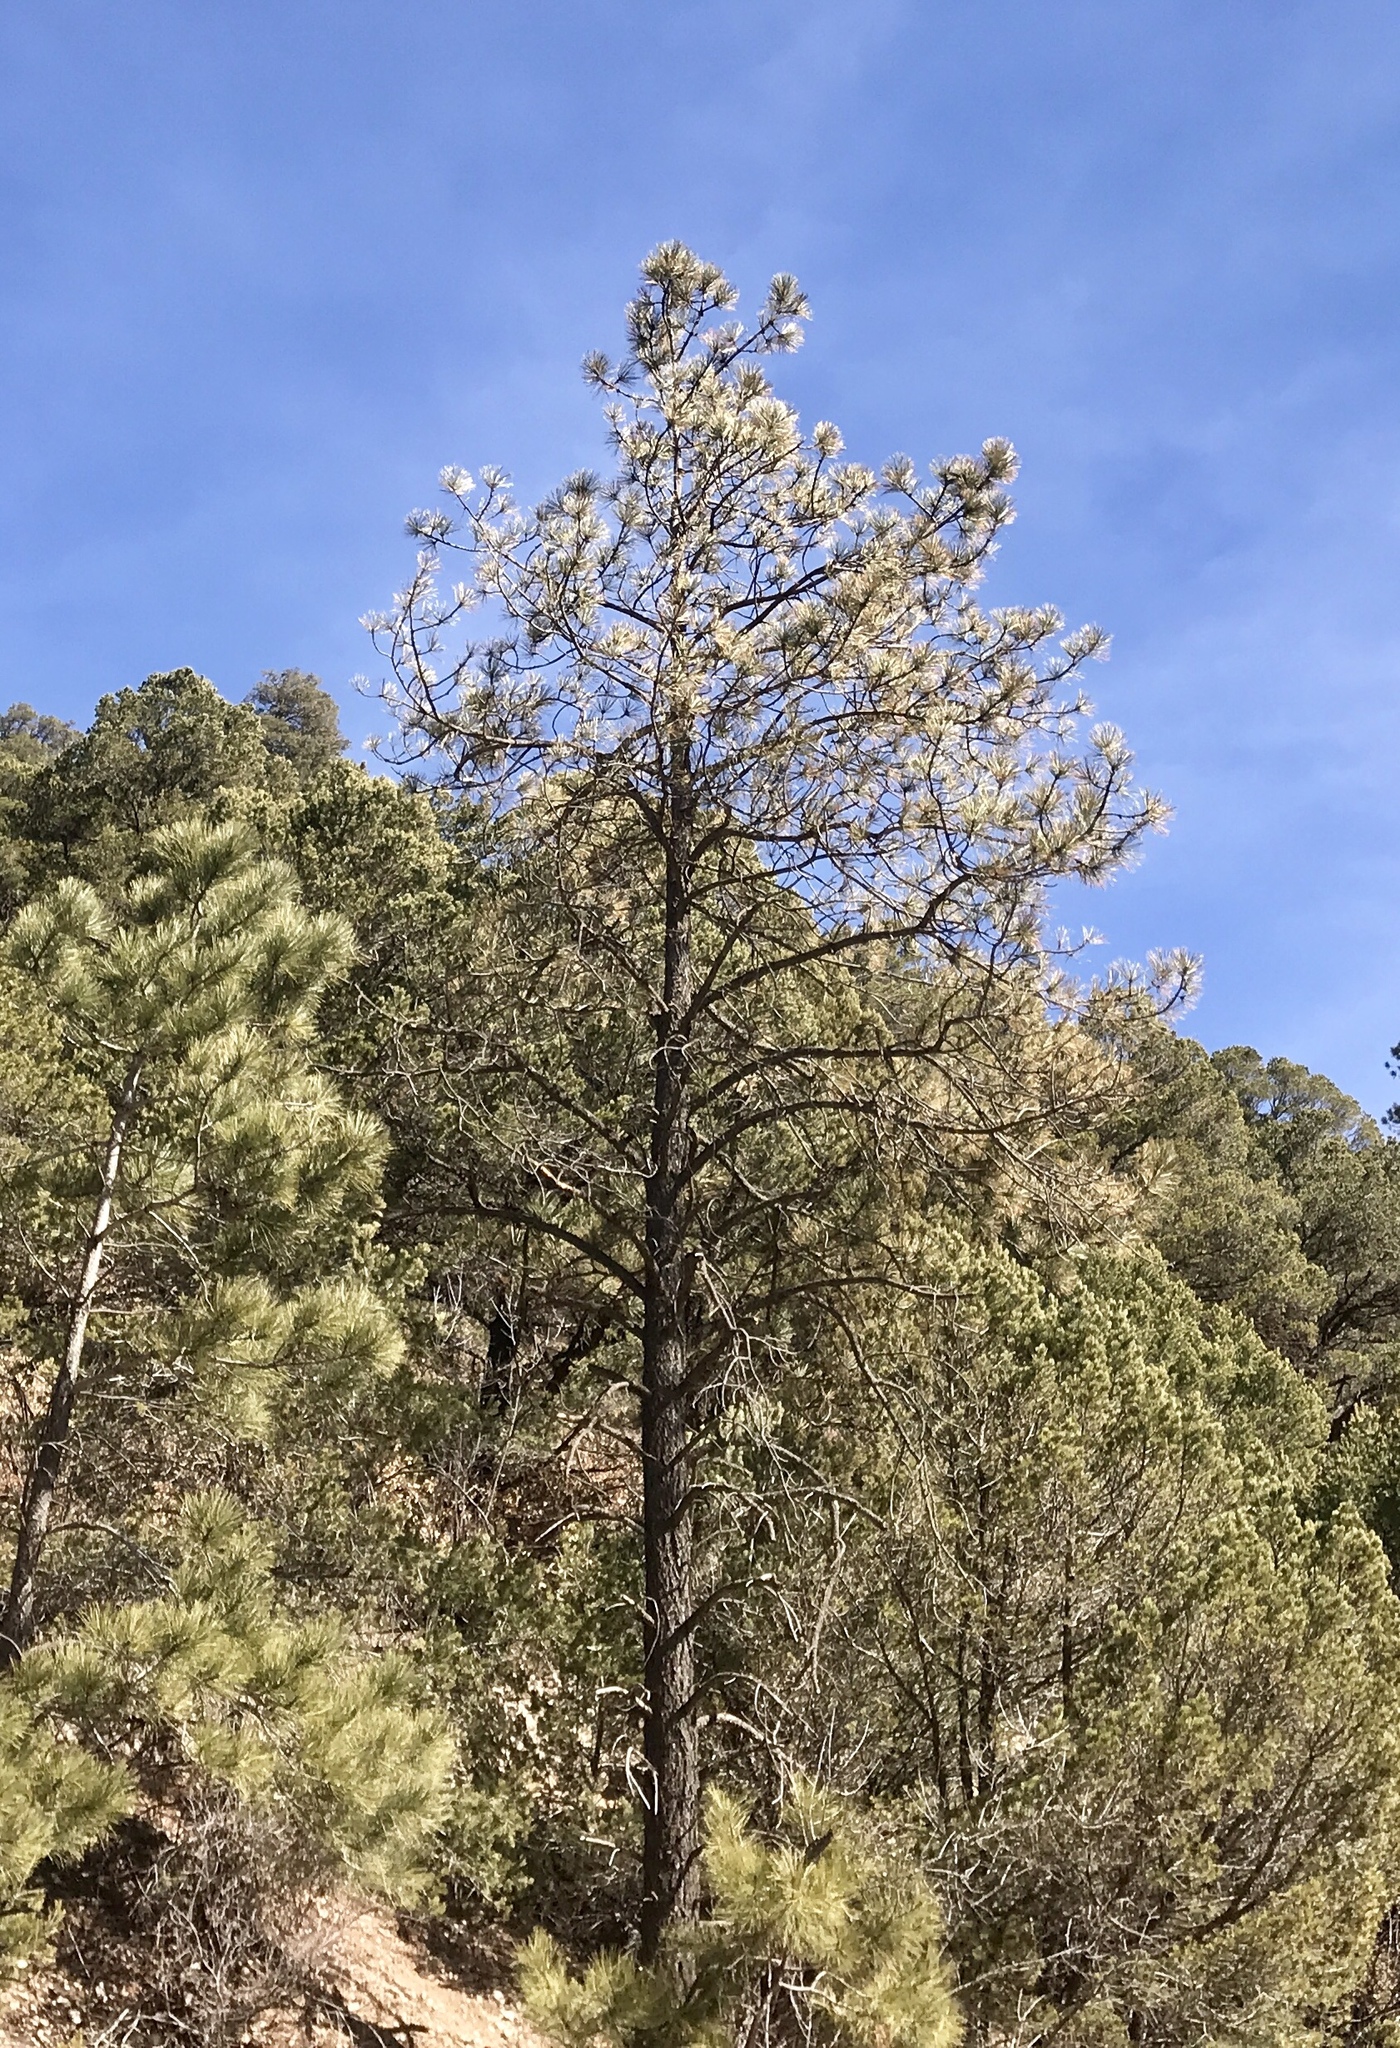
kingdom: Plantae
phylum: Tracheophyta
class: Pinopsida
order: Pinales
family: Pinaceae
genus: Pinus
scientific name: Pinus strobiformis
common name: Southwestern white pine
